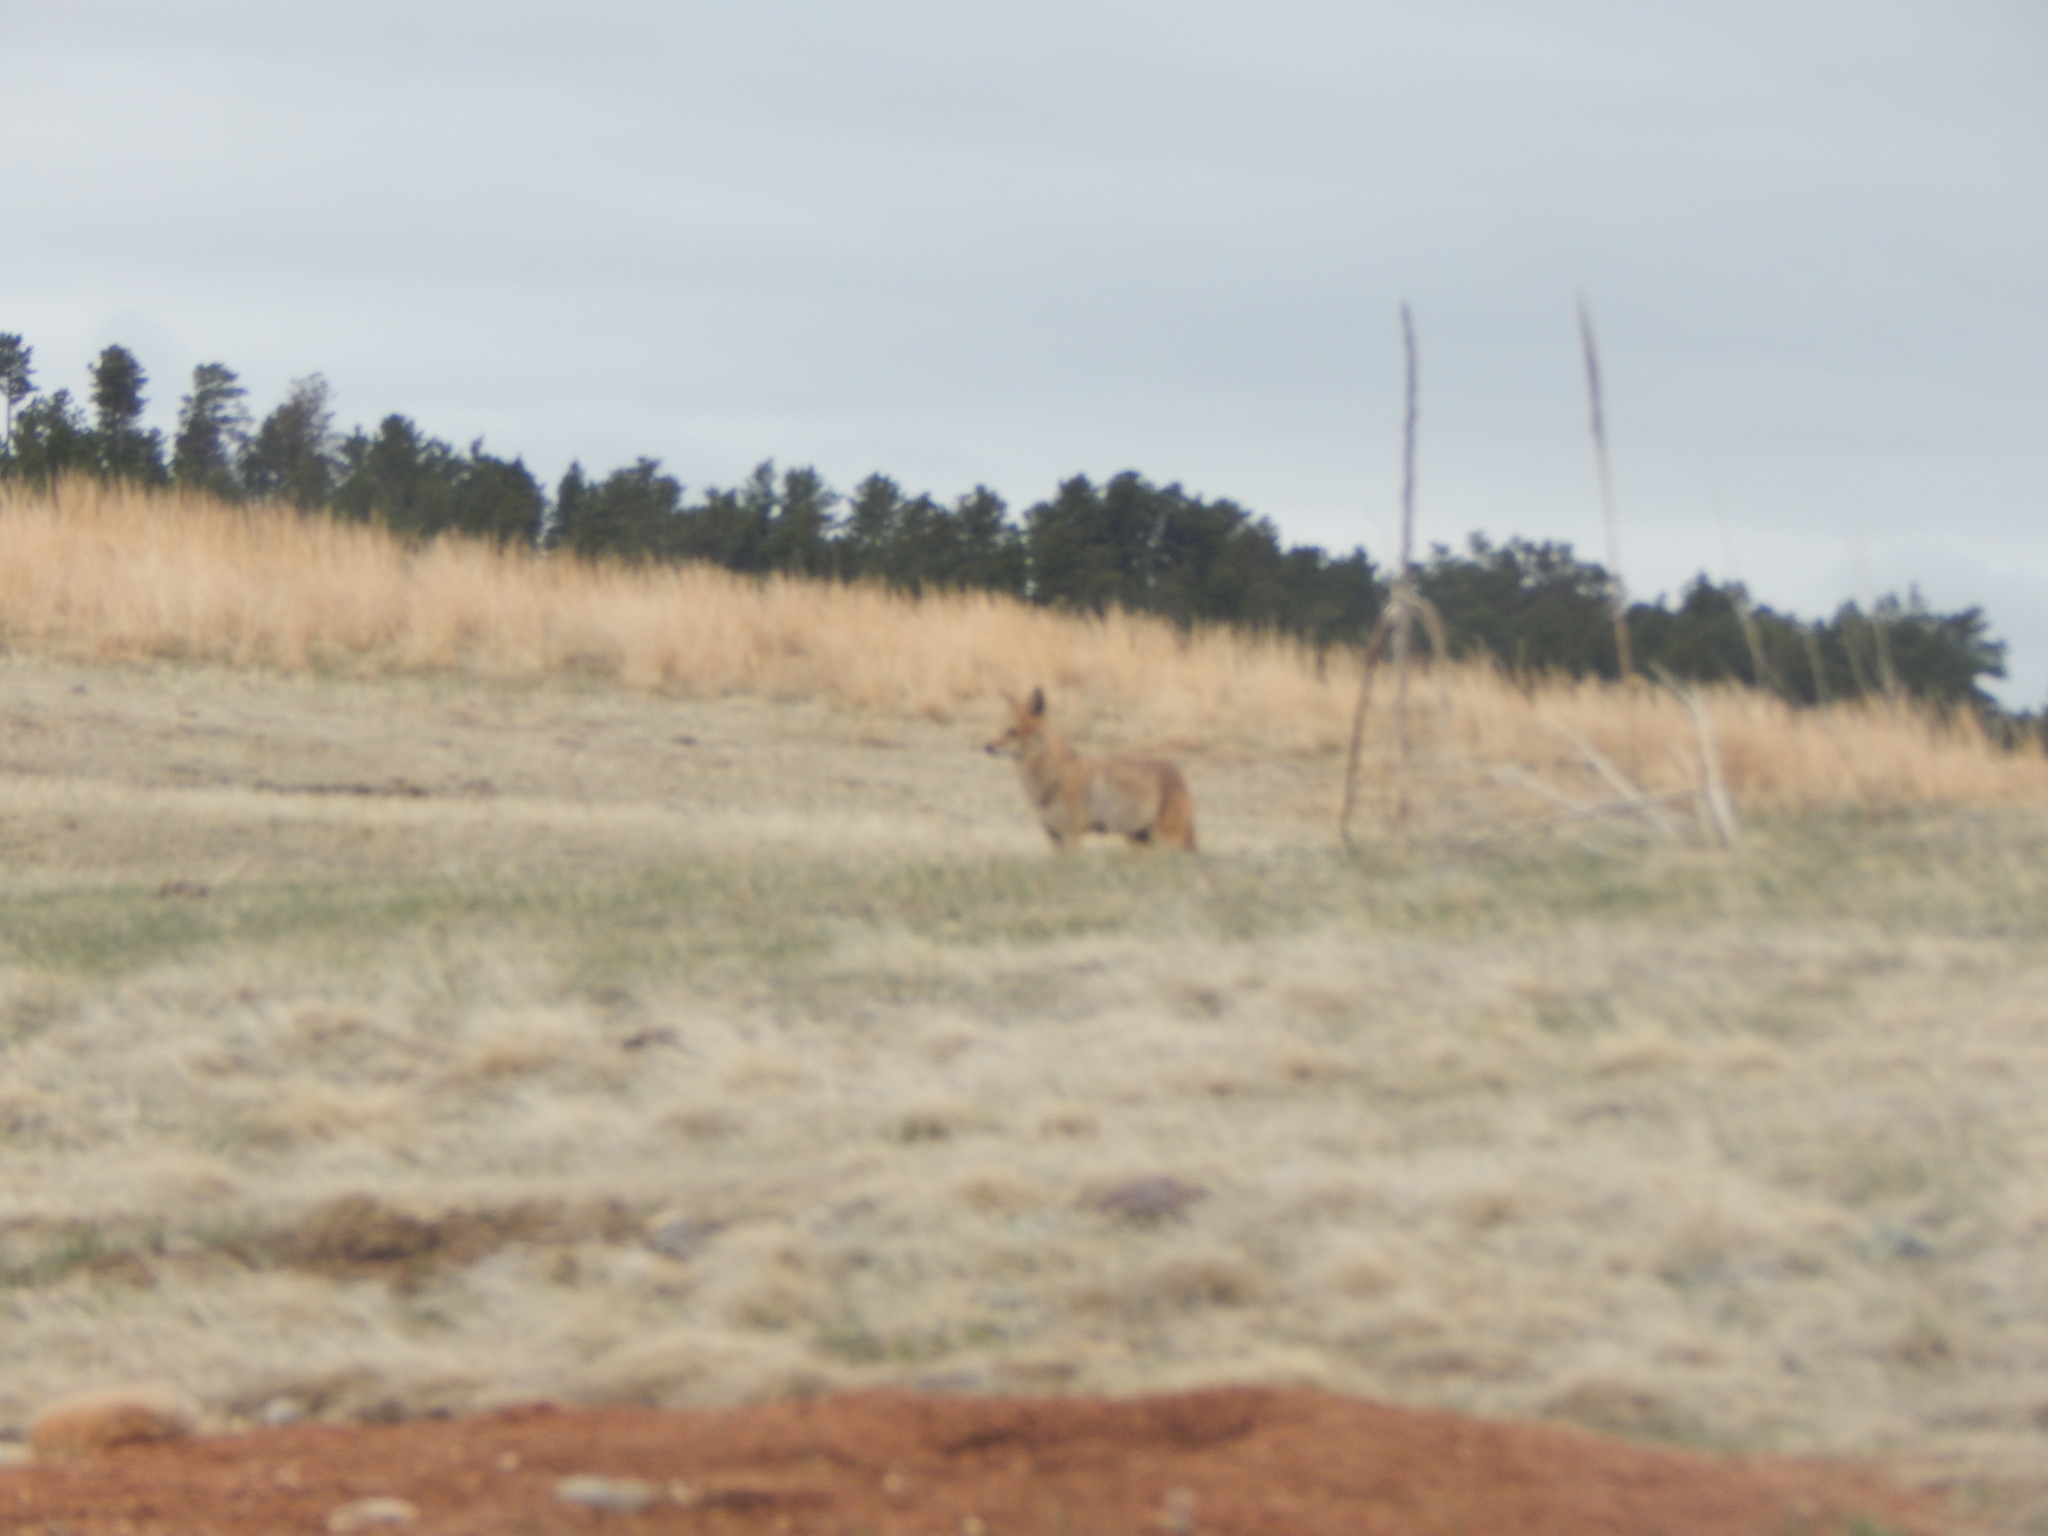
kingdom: Animalia
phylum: Chordata
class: Mammalia
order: Carnivora
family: Canidae
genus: Canis
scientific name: Canis latrans
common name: Coyote
